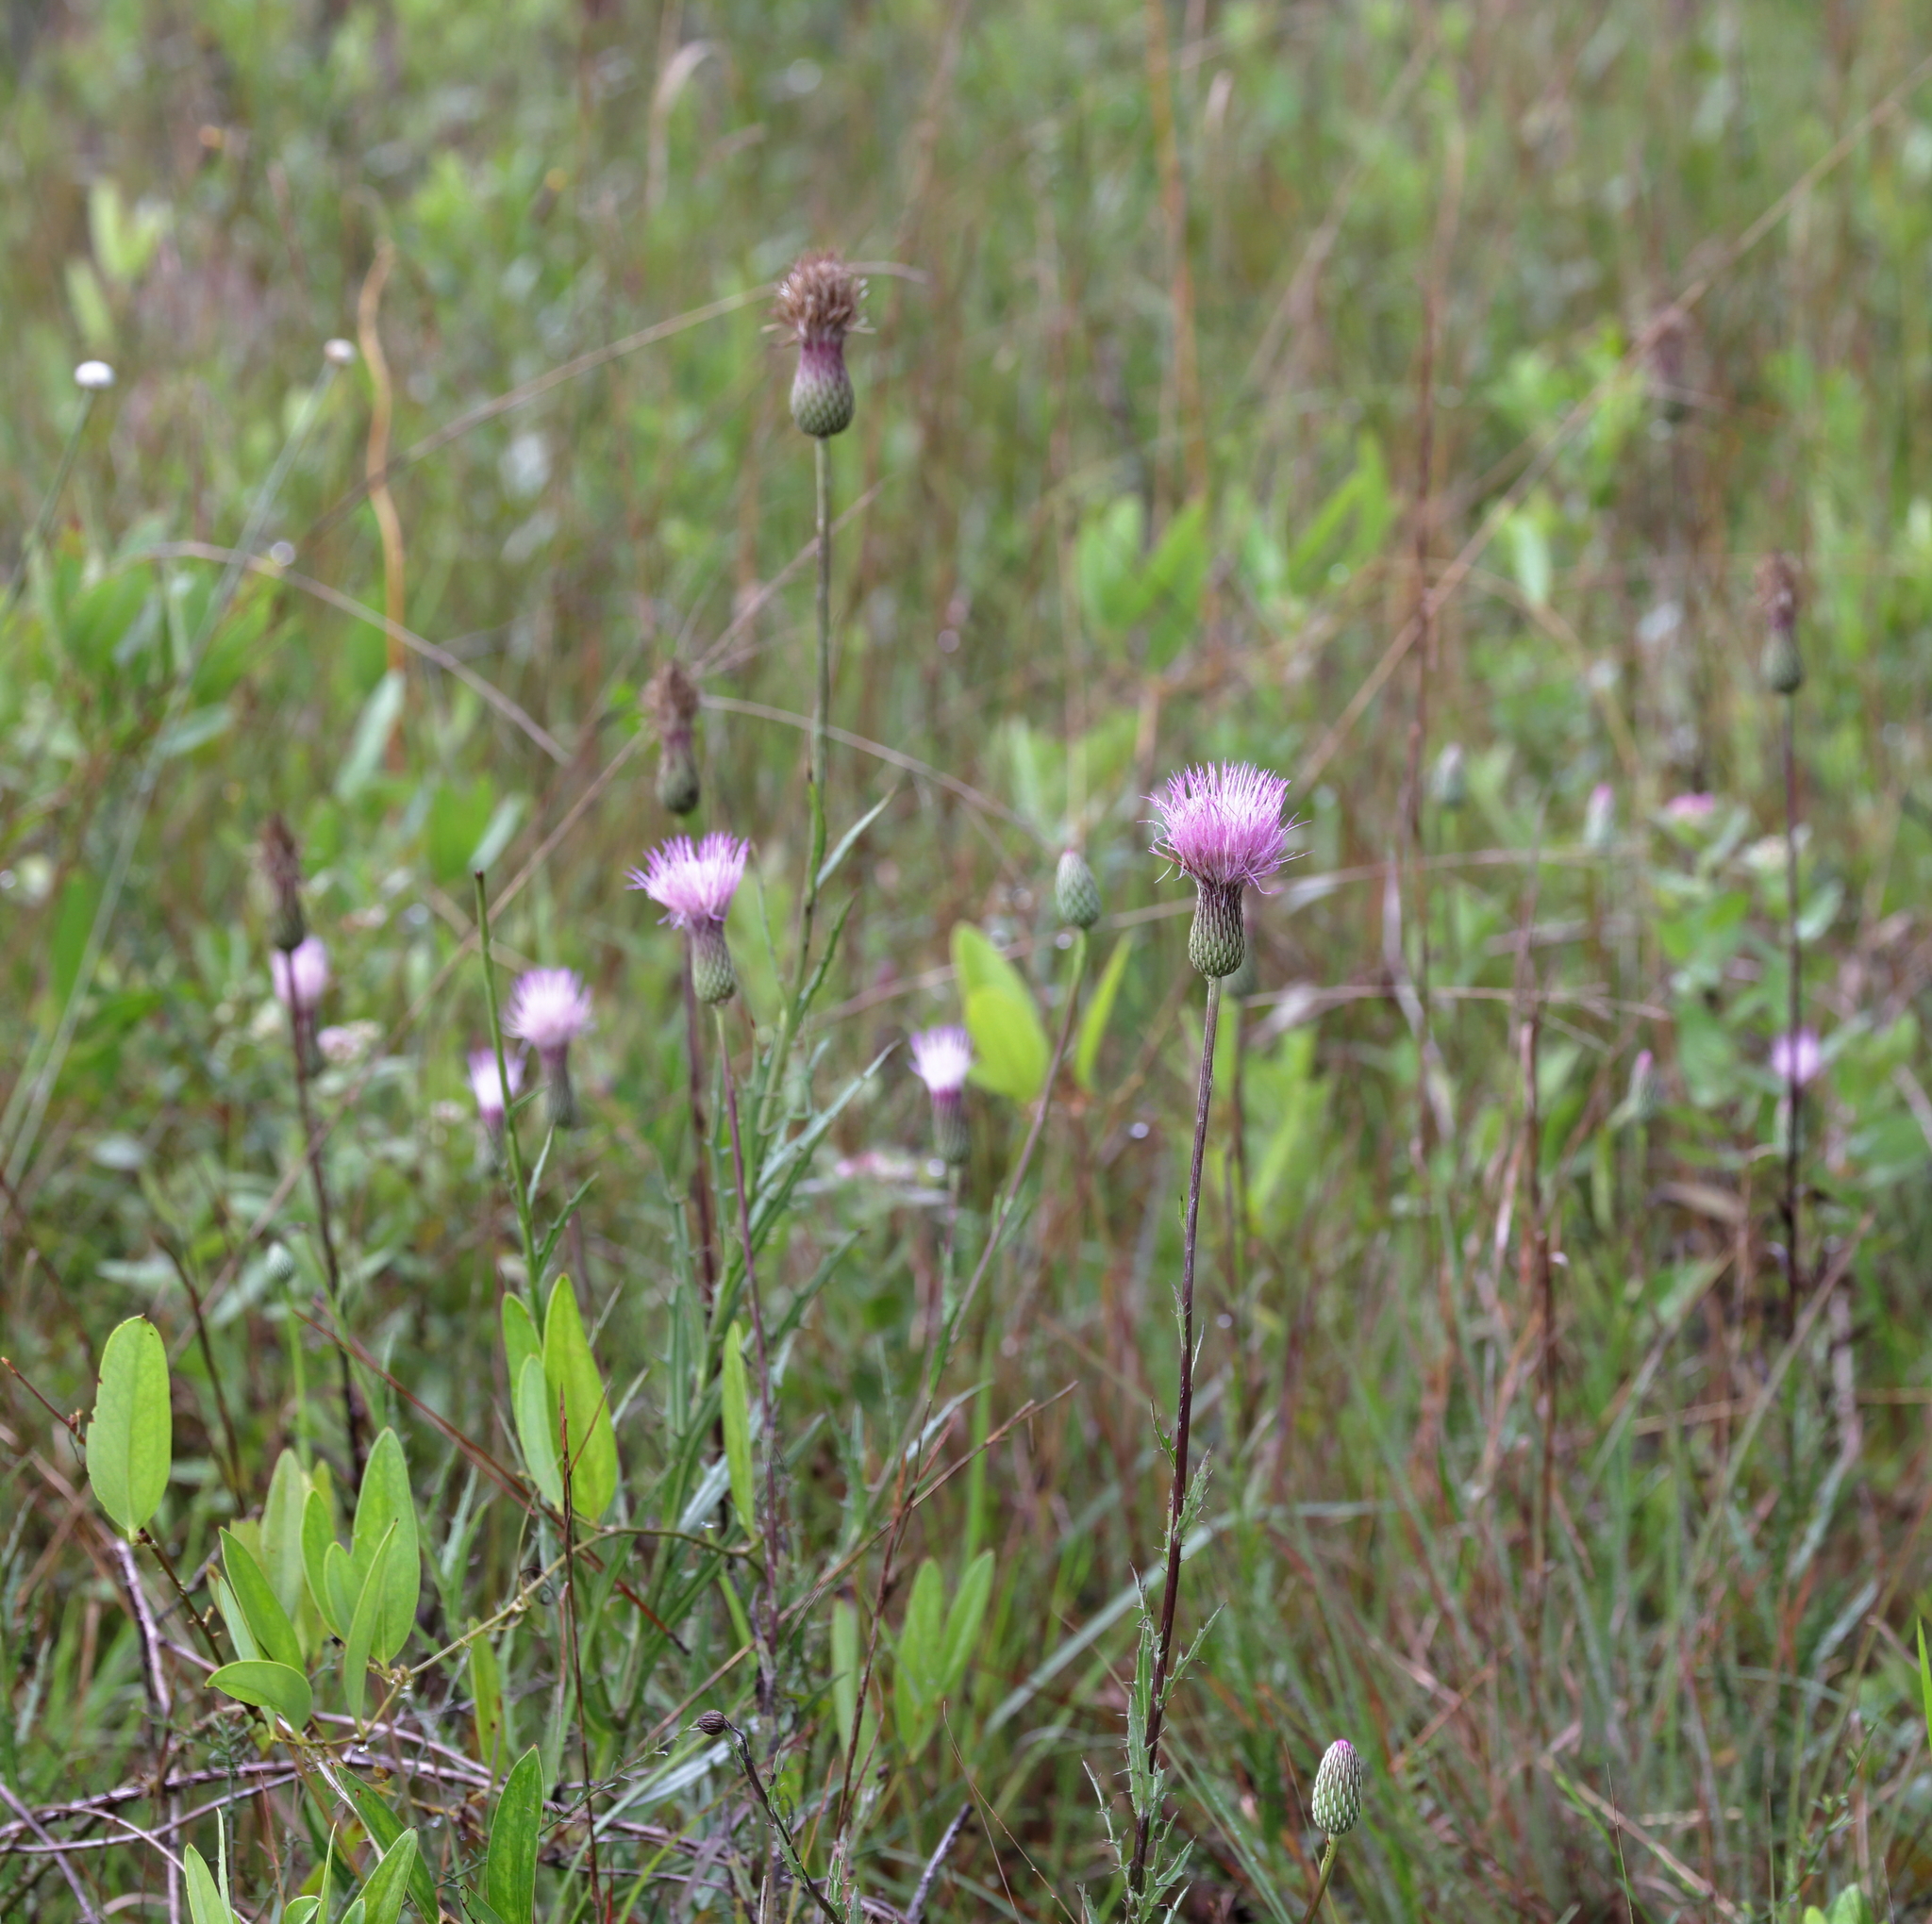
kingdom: Plantae
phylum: Tracheophyta
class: Magnoliopsida
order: Asterales
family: Asteraceae
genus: Cirsium
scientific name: Cirsium lecontei
